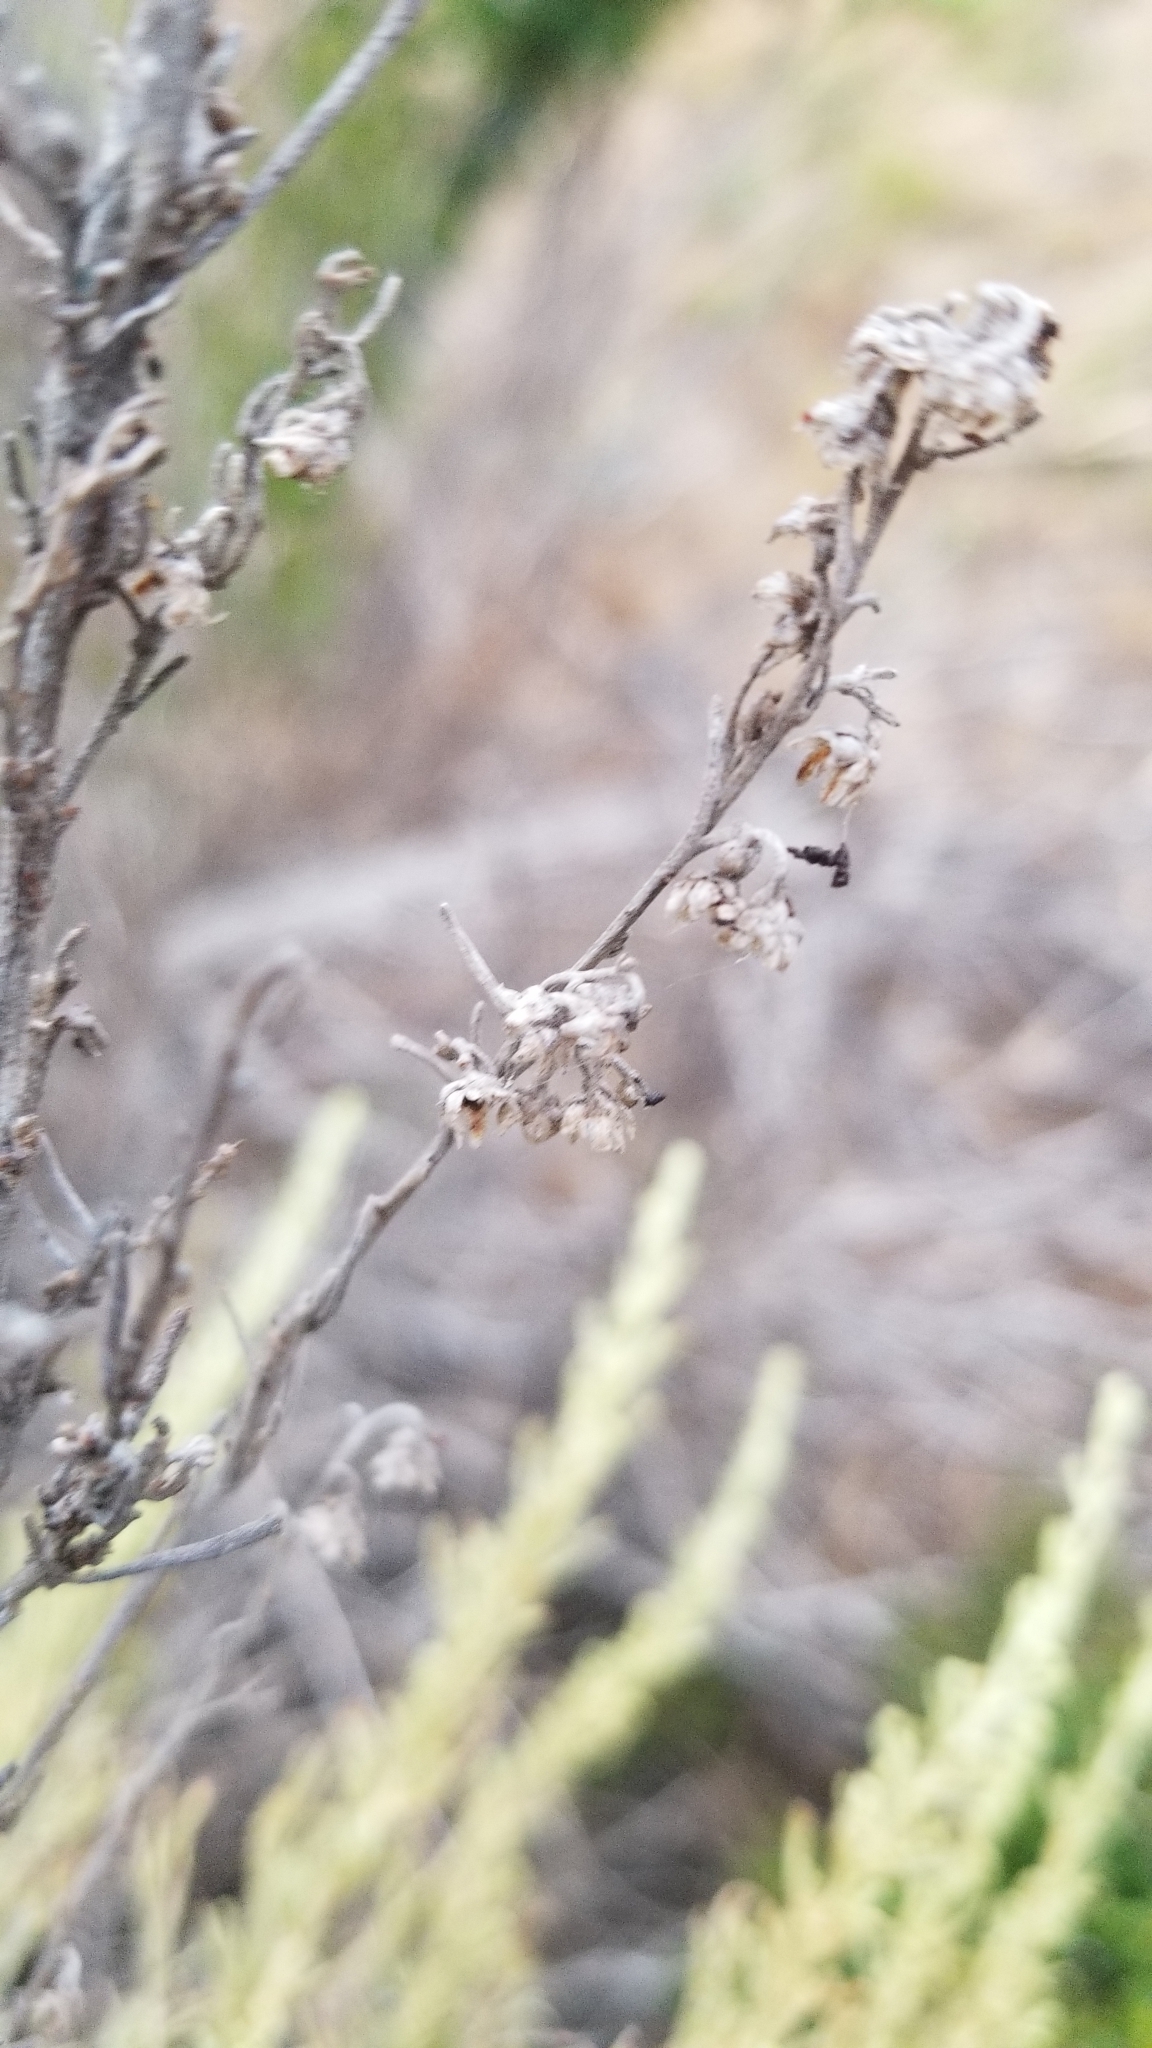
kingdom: Plantae
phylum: Tracheophyta
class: Magnoliopsida
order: Asterales
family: Asteraceae
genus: Artemisia
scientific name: Artemisia californica
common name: California sagebrush
